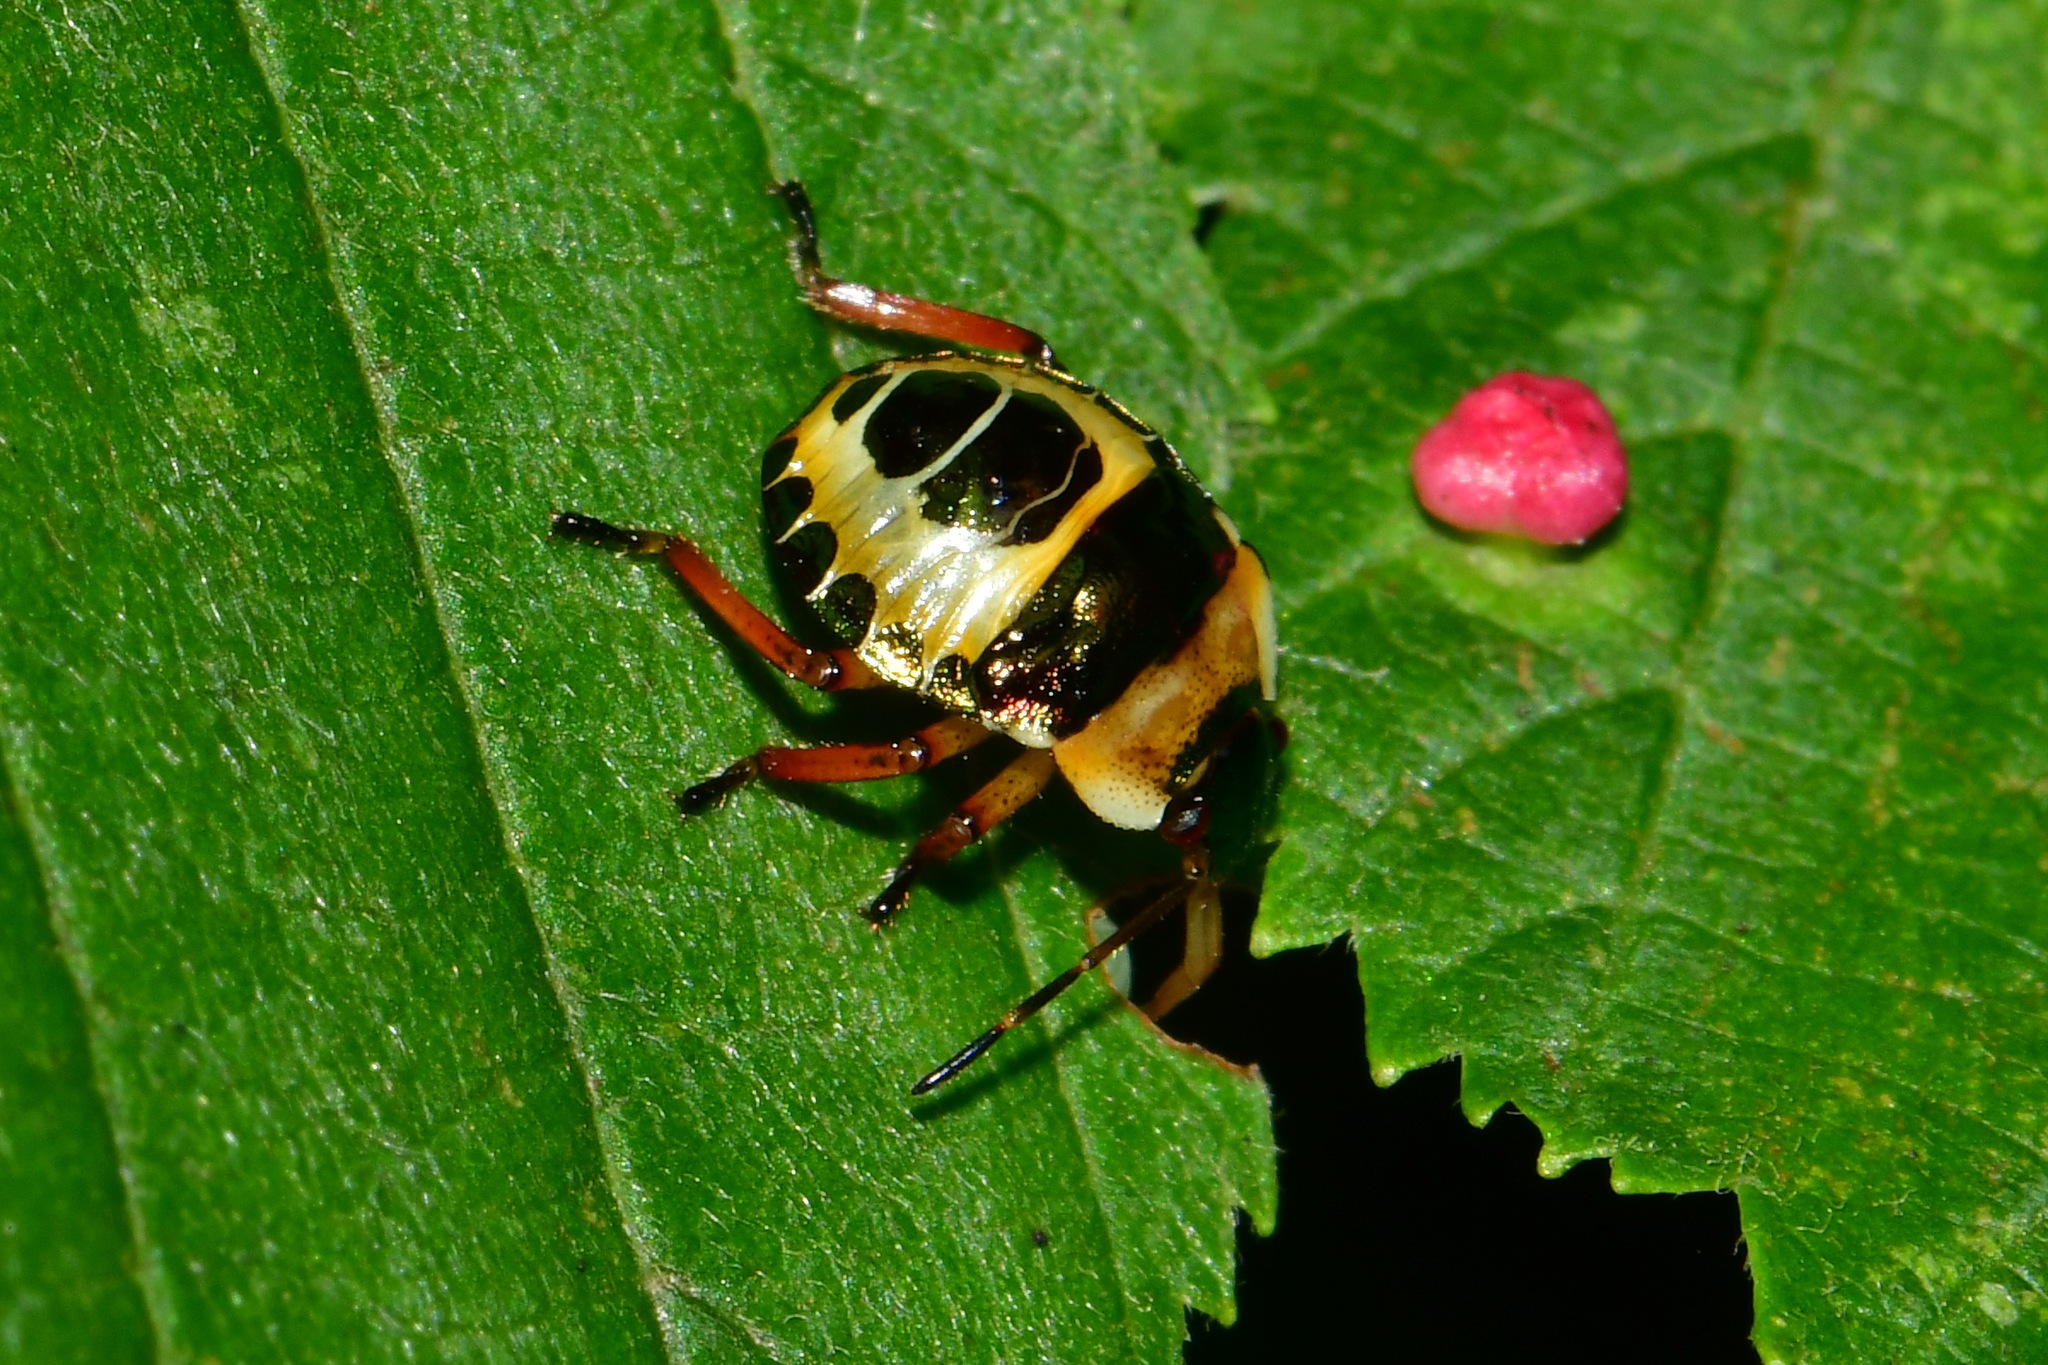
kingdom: Animalia
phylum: Arthropoda
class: Insecta
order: Hemiptera
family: Pentatomidae
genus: Troilus
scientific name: Troilus luridus
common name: Bronze shieldbug
